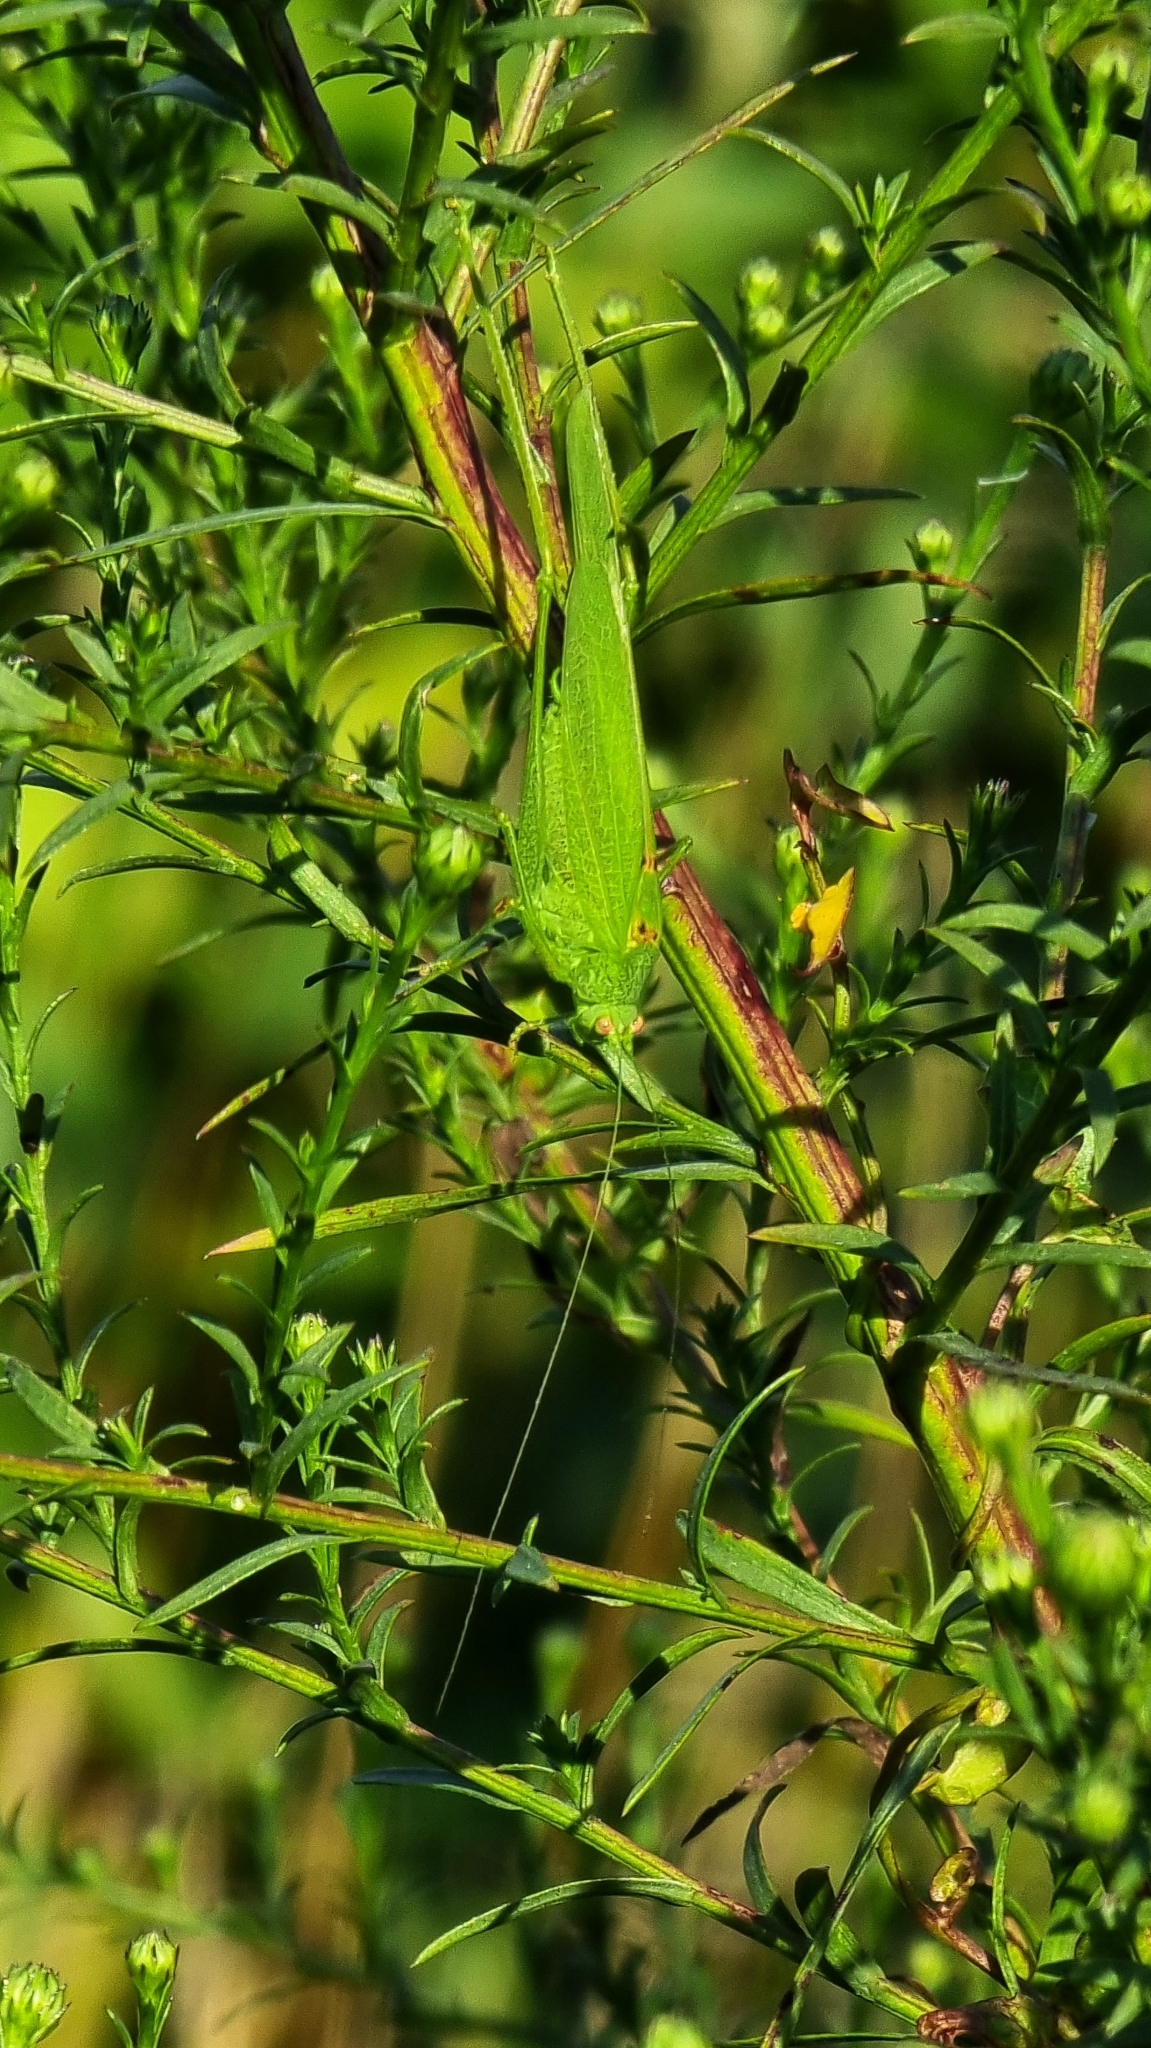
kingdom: Animalia
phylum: Arthropoda
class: Insecta
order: Orthoptera
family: Tettigoniidae
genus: Phaneroptera
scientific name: Phaneroptera nana
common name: Southern sickle bush-cricket
